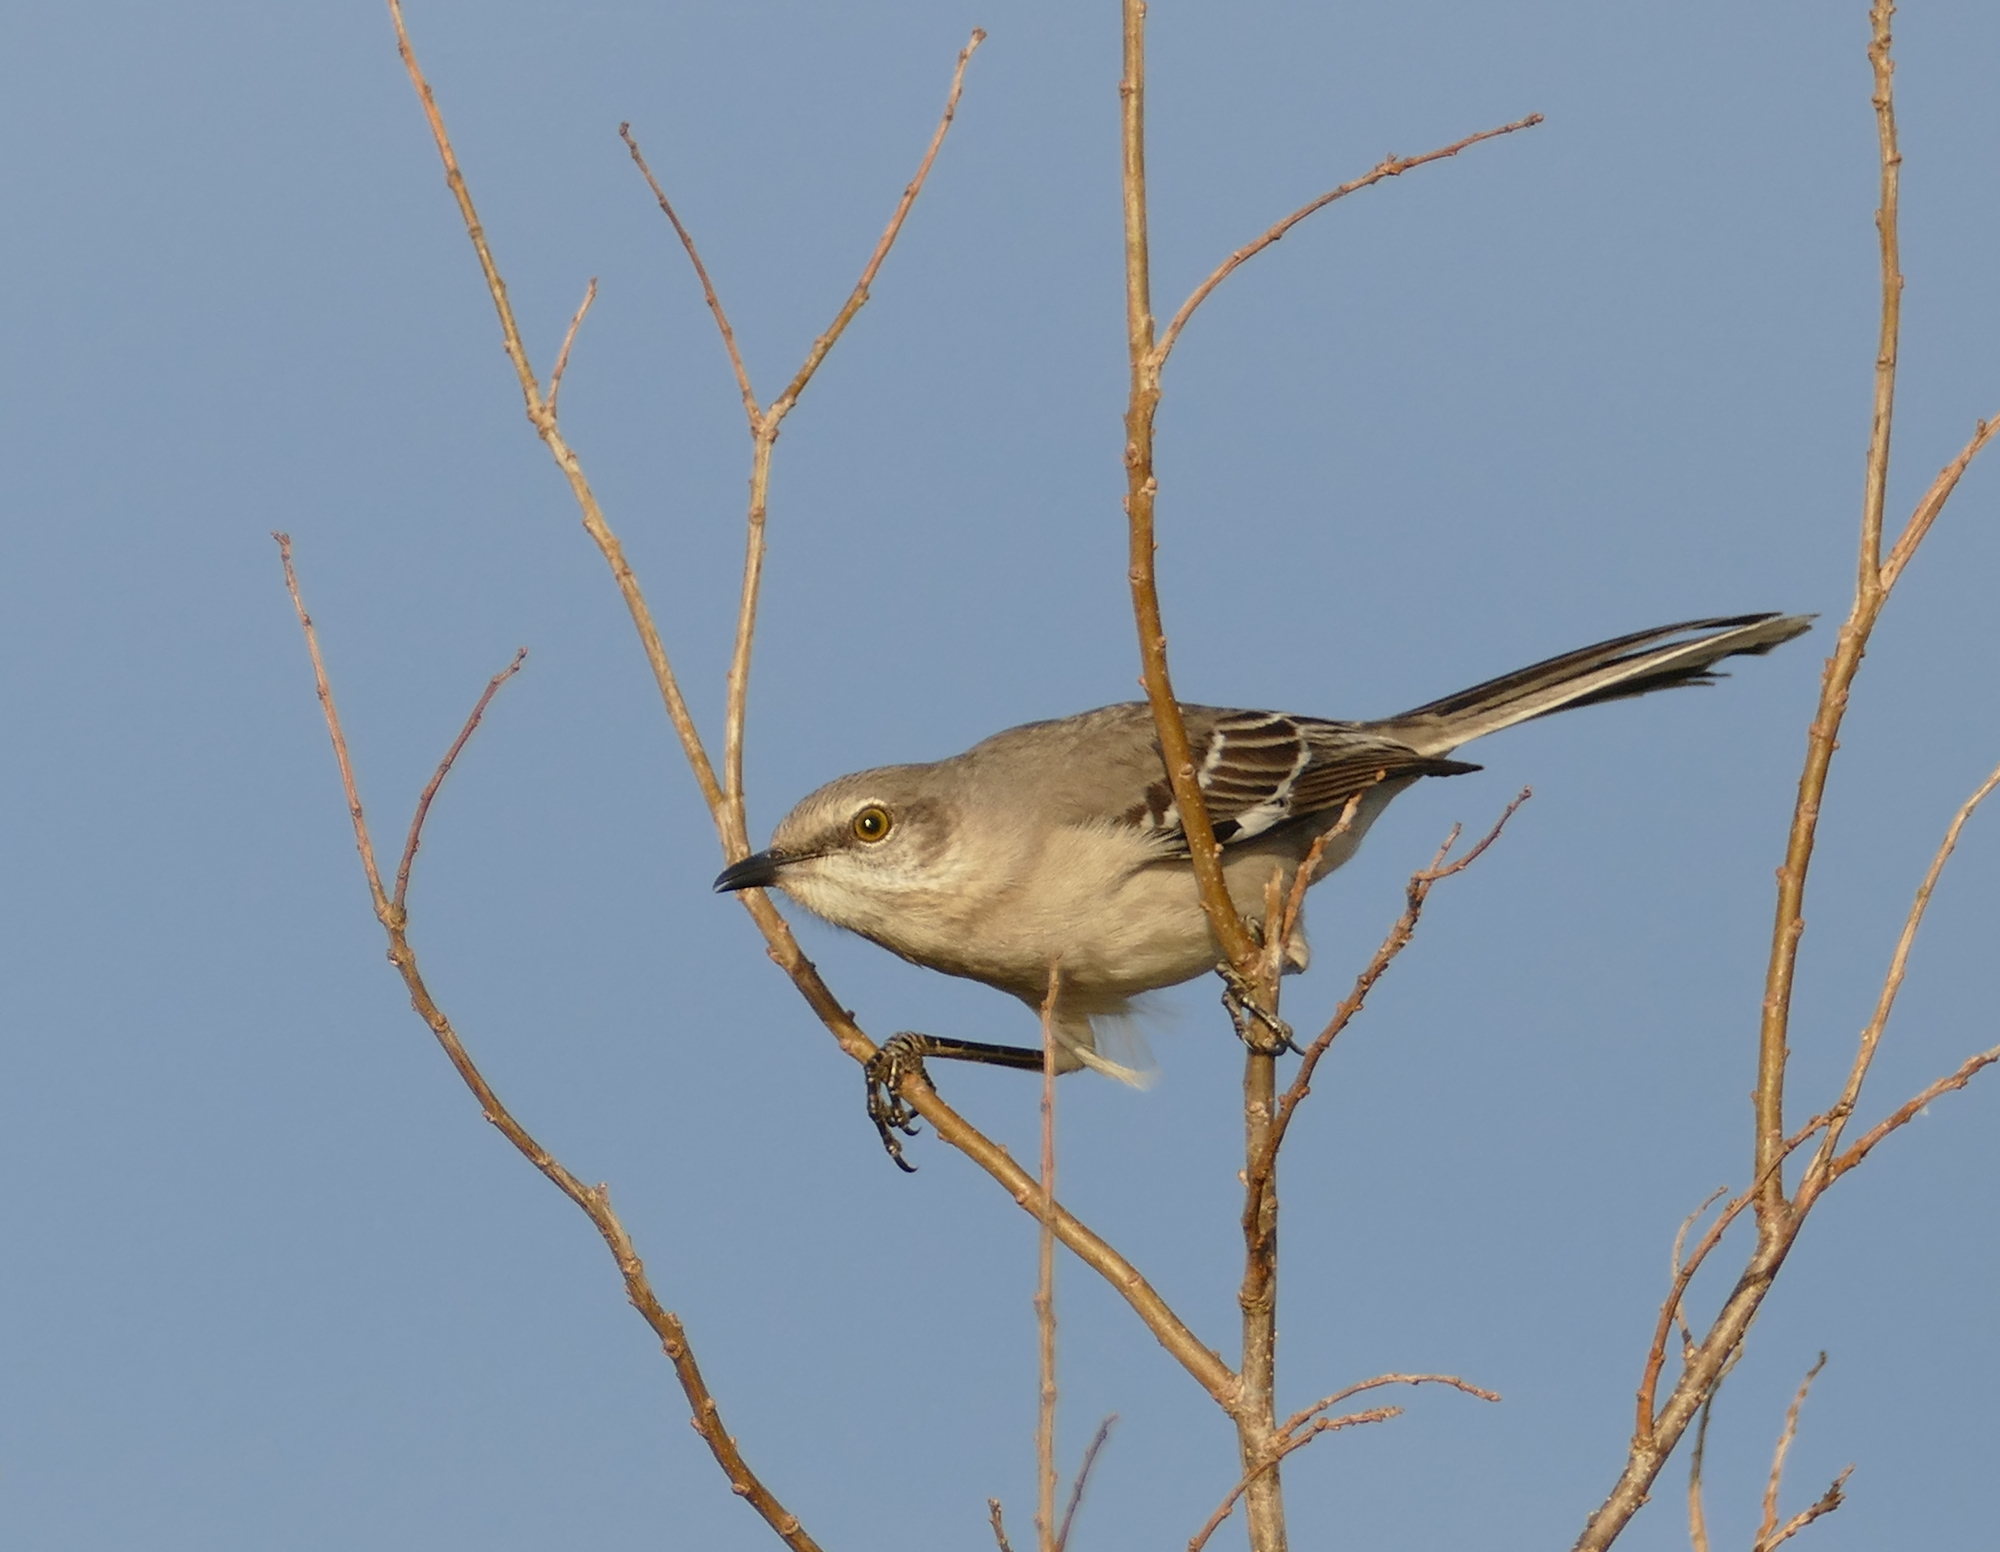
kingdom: Animalia
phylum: Chordata
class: Aves
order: Passeriformes
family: Mimidae
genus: Mimus
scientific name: Mimus polyglottos
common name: Northern mockingbird
